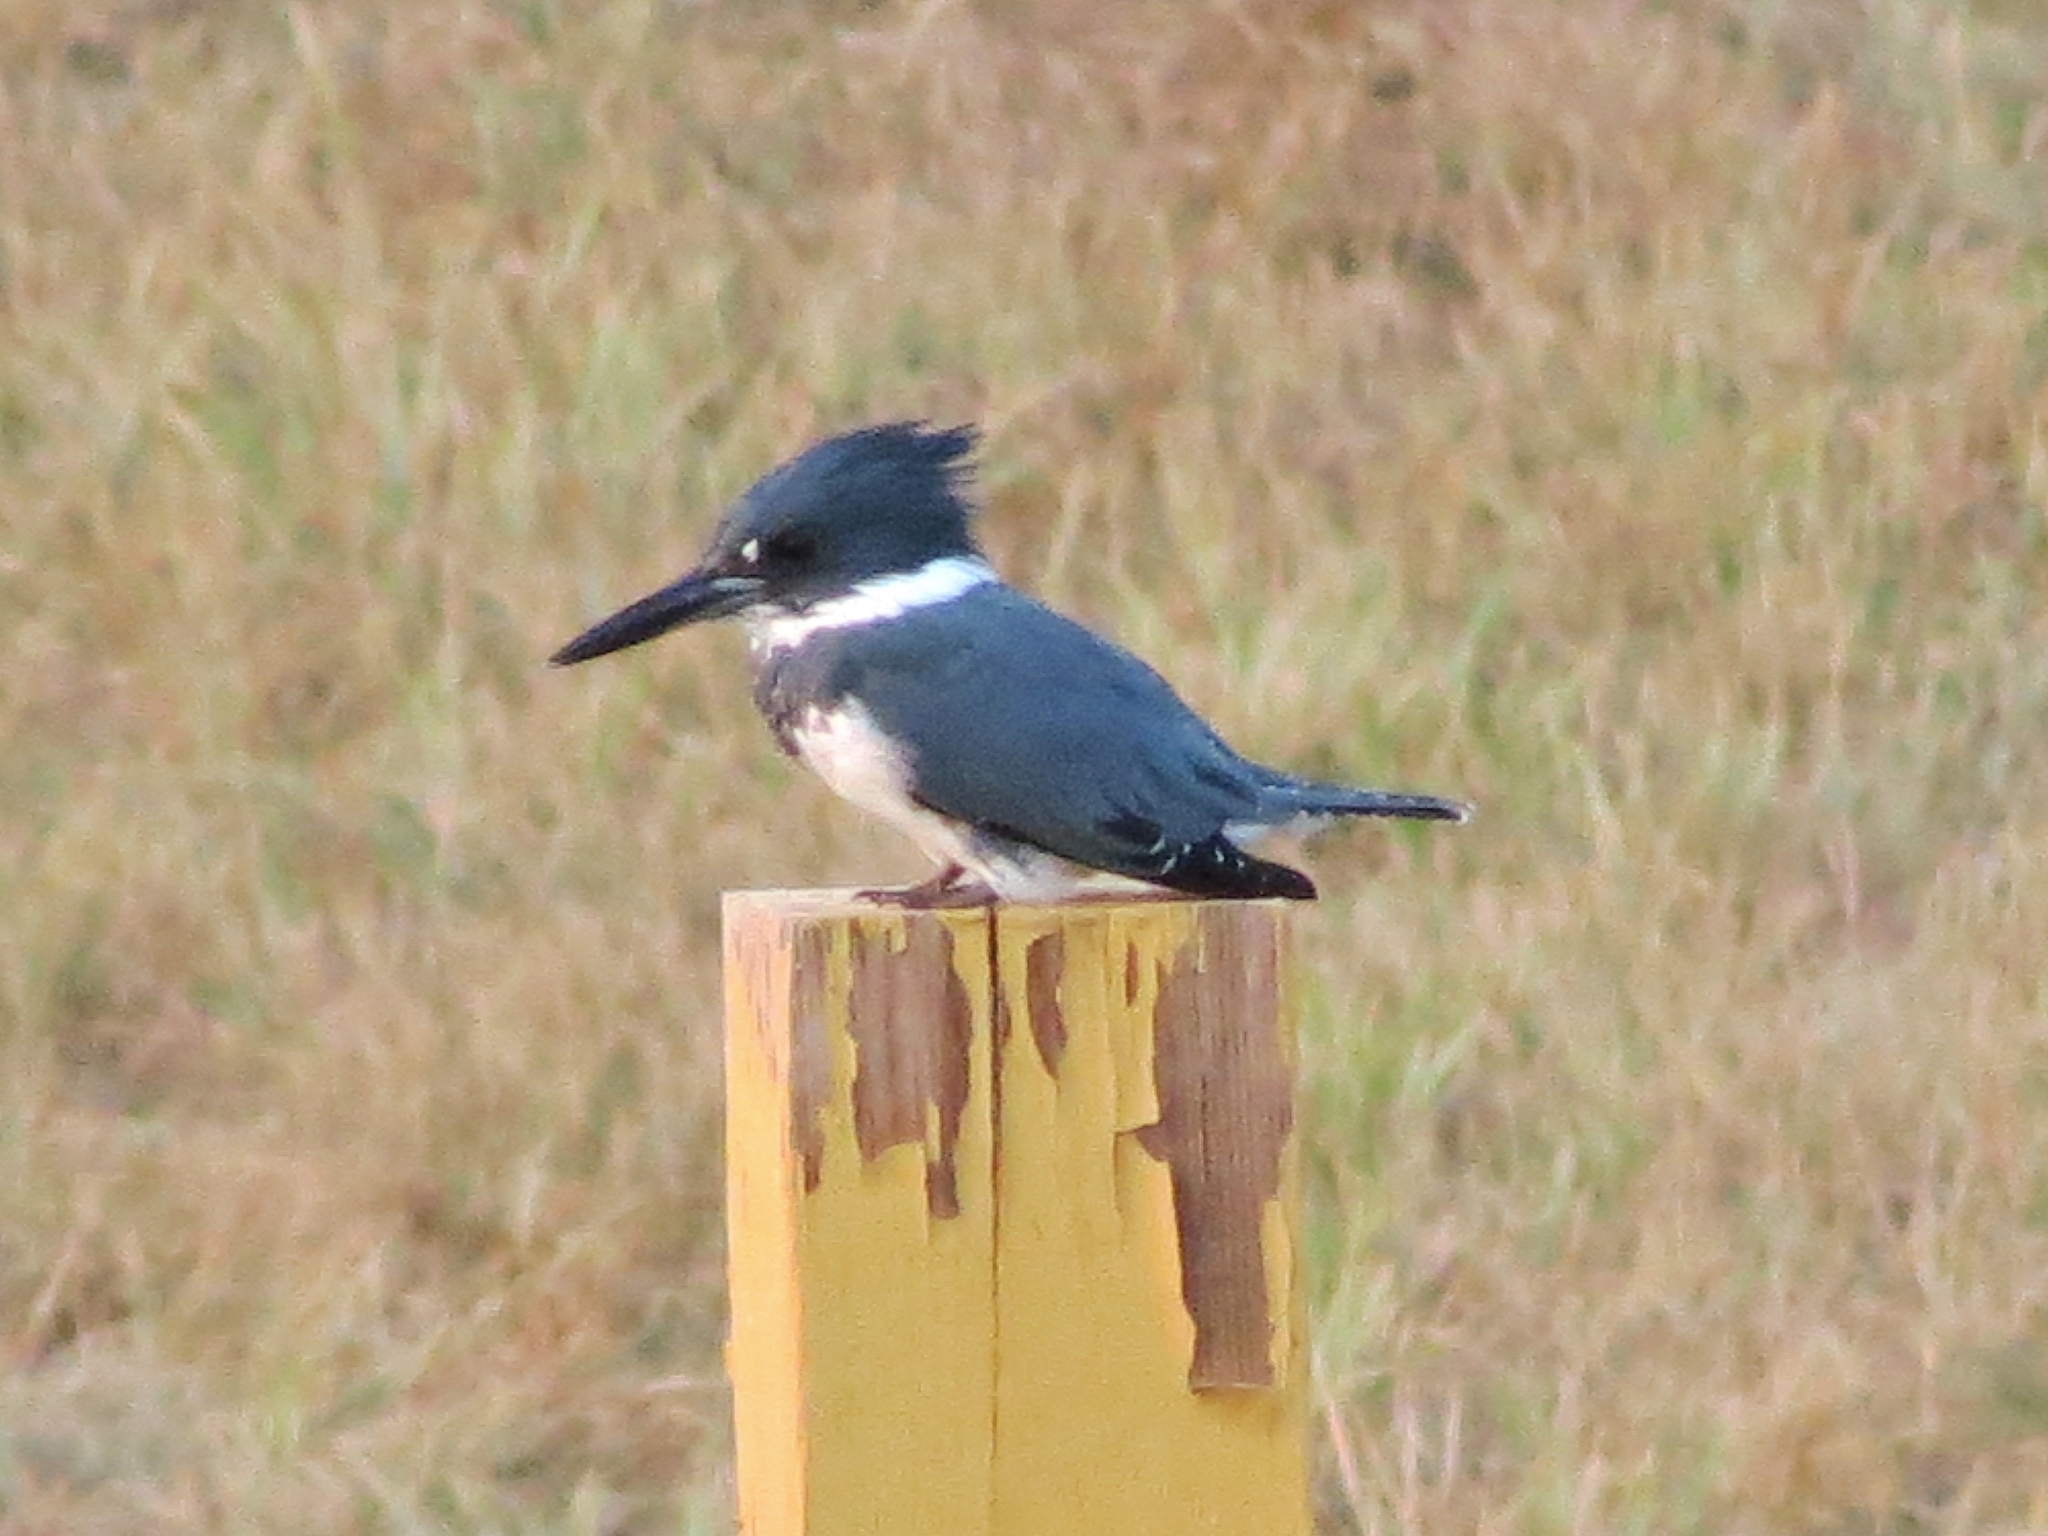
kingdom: Animalia
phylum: Chordata
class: Aves
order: Coraciiformes
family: Alcedinidae
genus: Megaceryle
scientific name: Megaceryle alcyon
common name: Belted kingfisher
